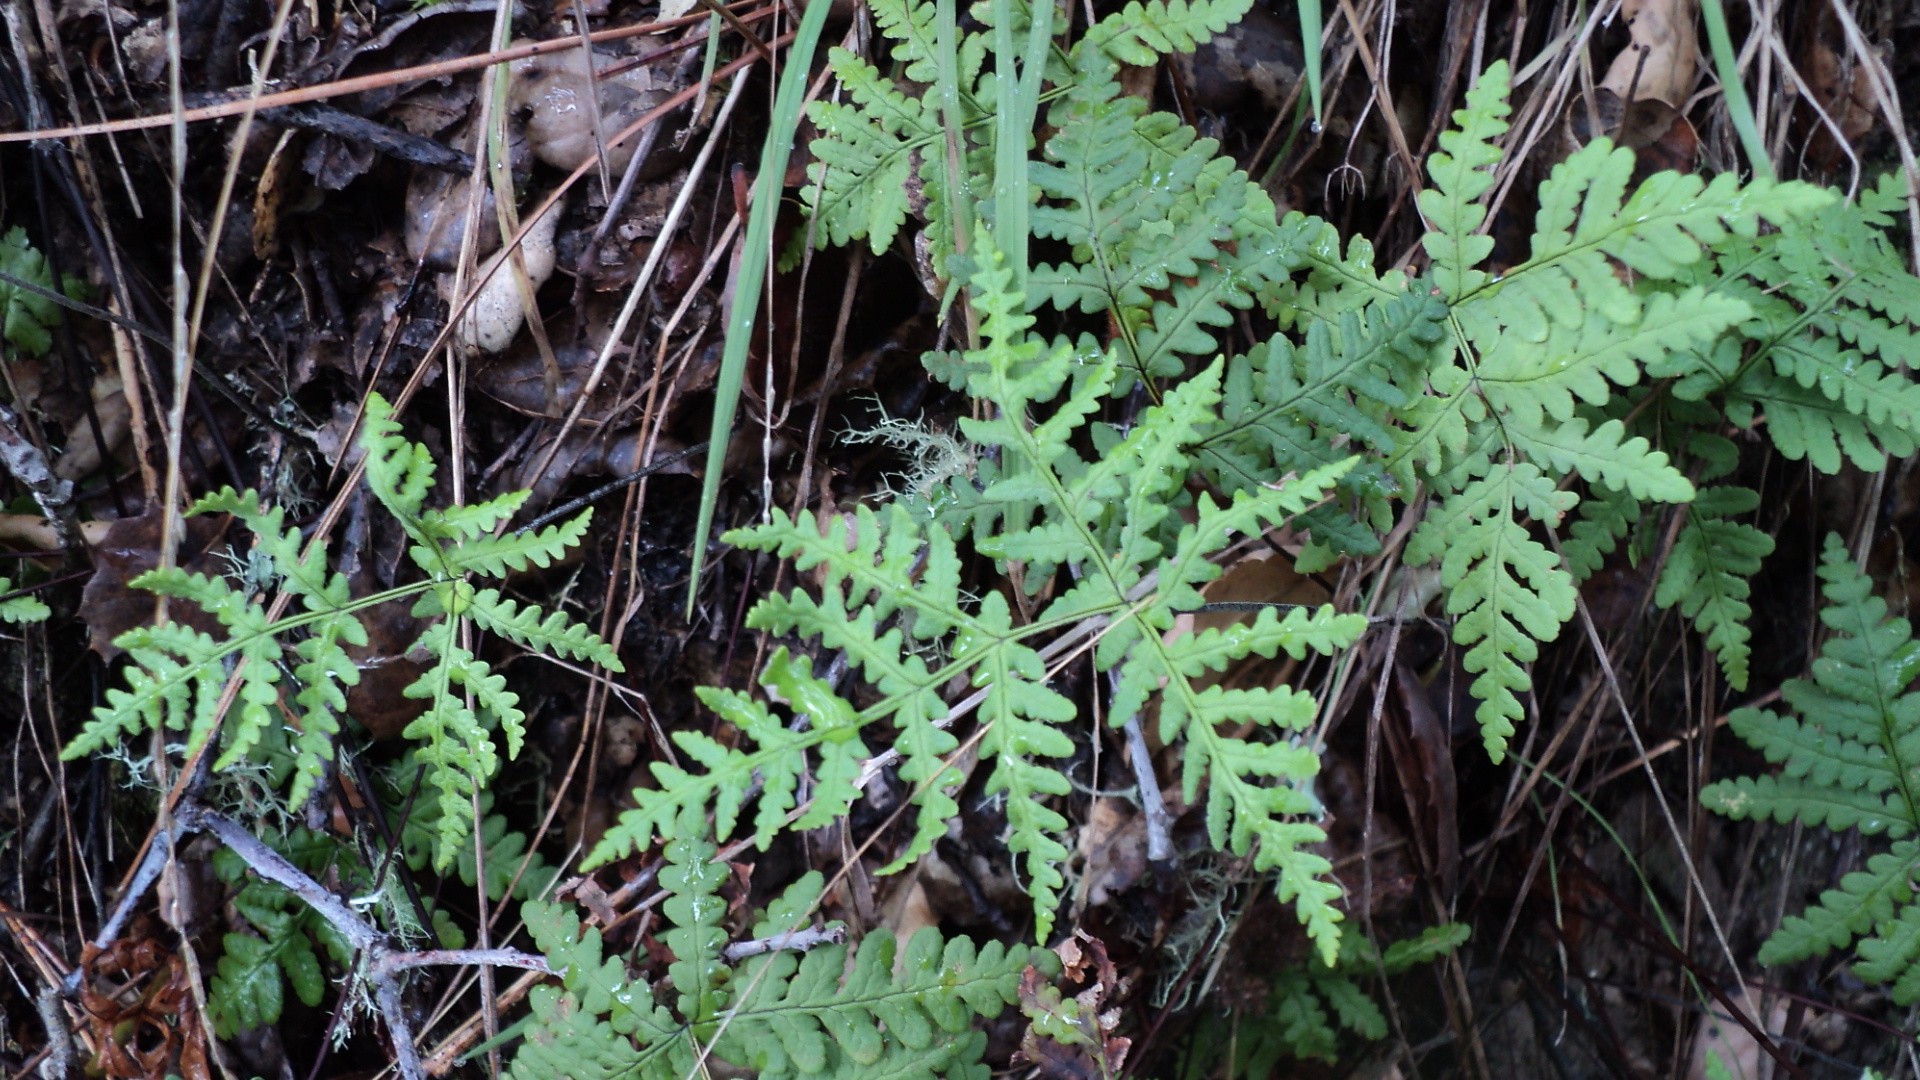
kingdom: Plantae
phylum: Tracheophyta
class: Polypodiopsida
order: Polypodiales
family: Pteridaceae
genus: Pentagramma
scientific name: Pentagramma triangularis
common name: Gold fern
